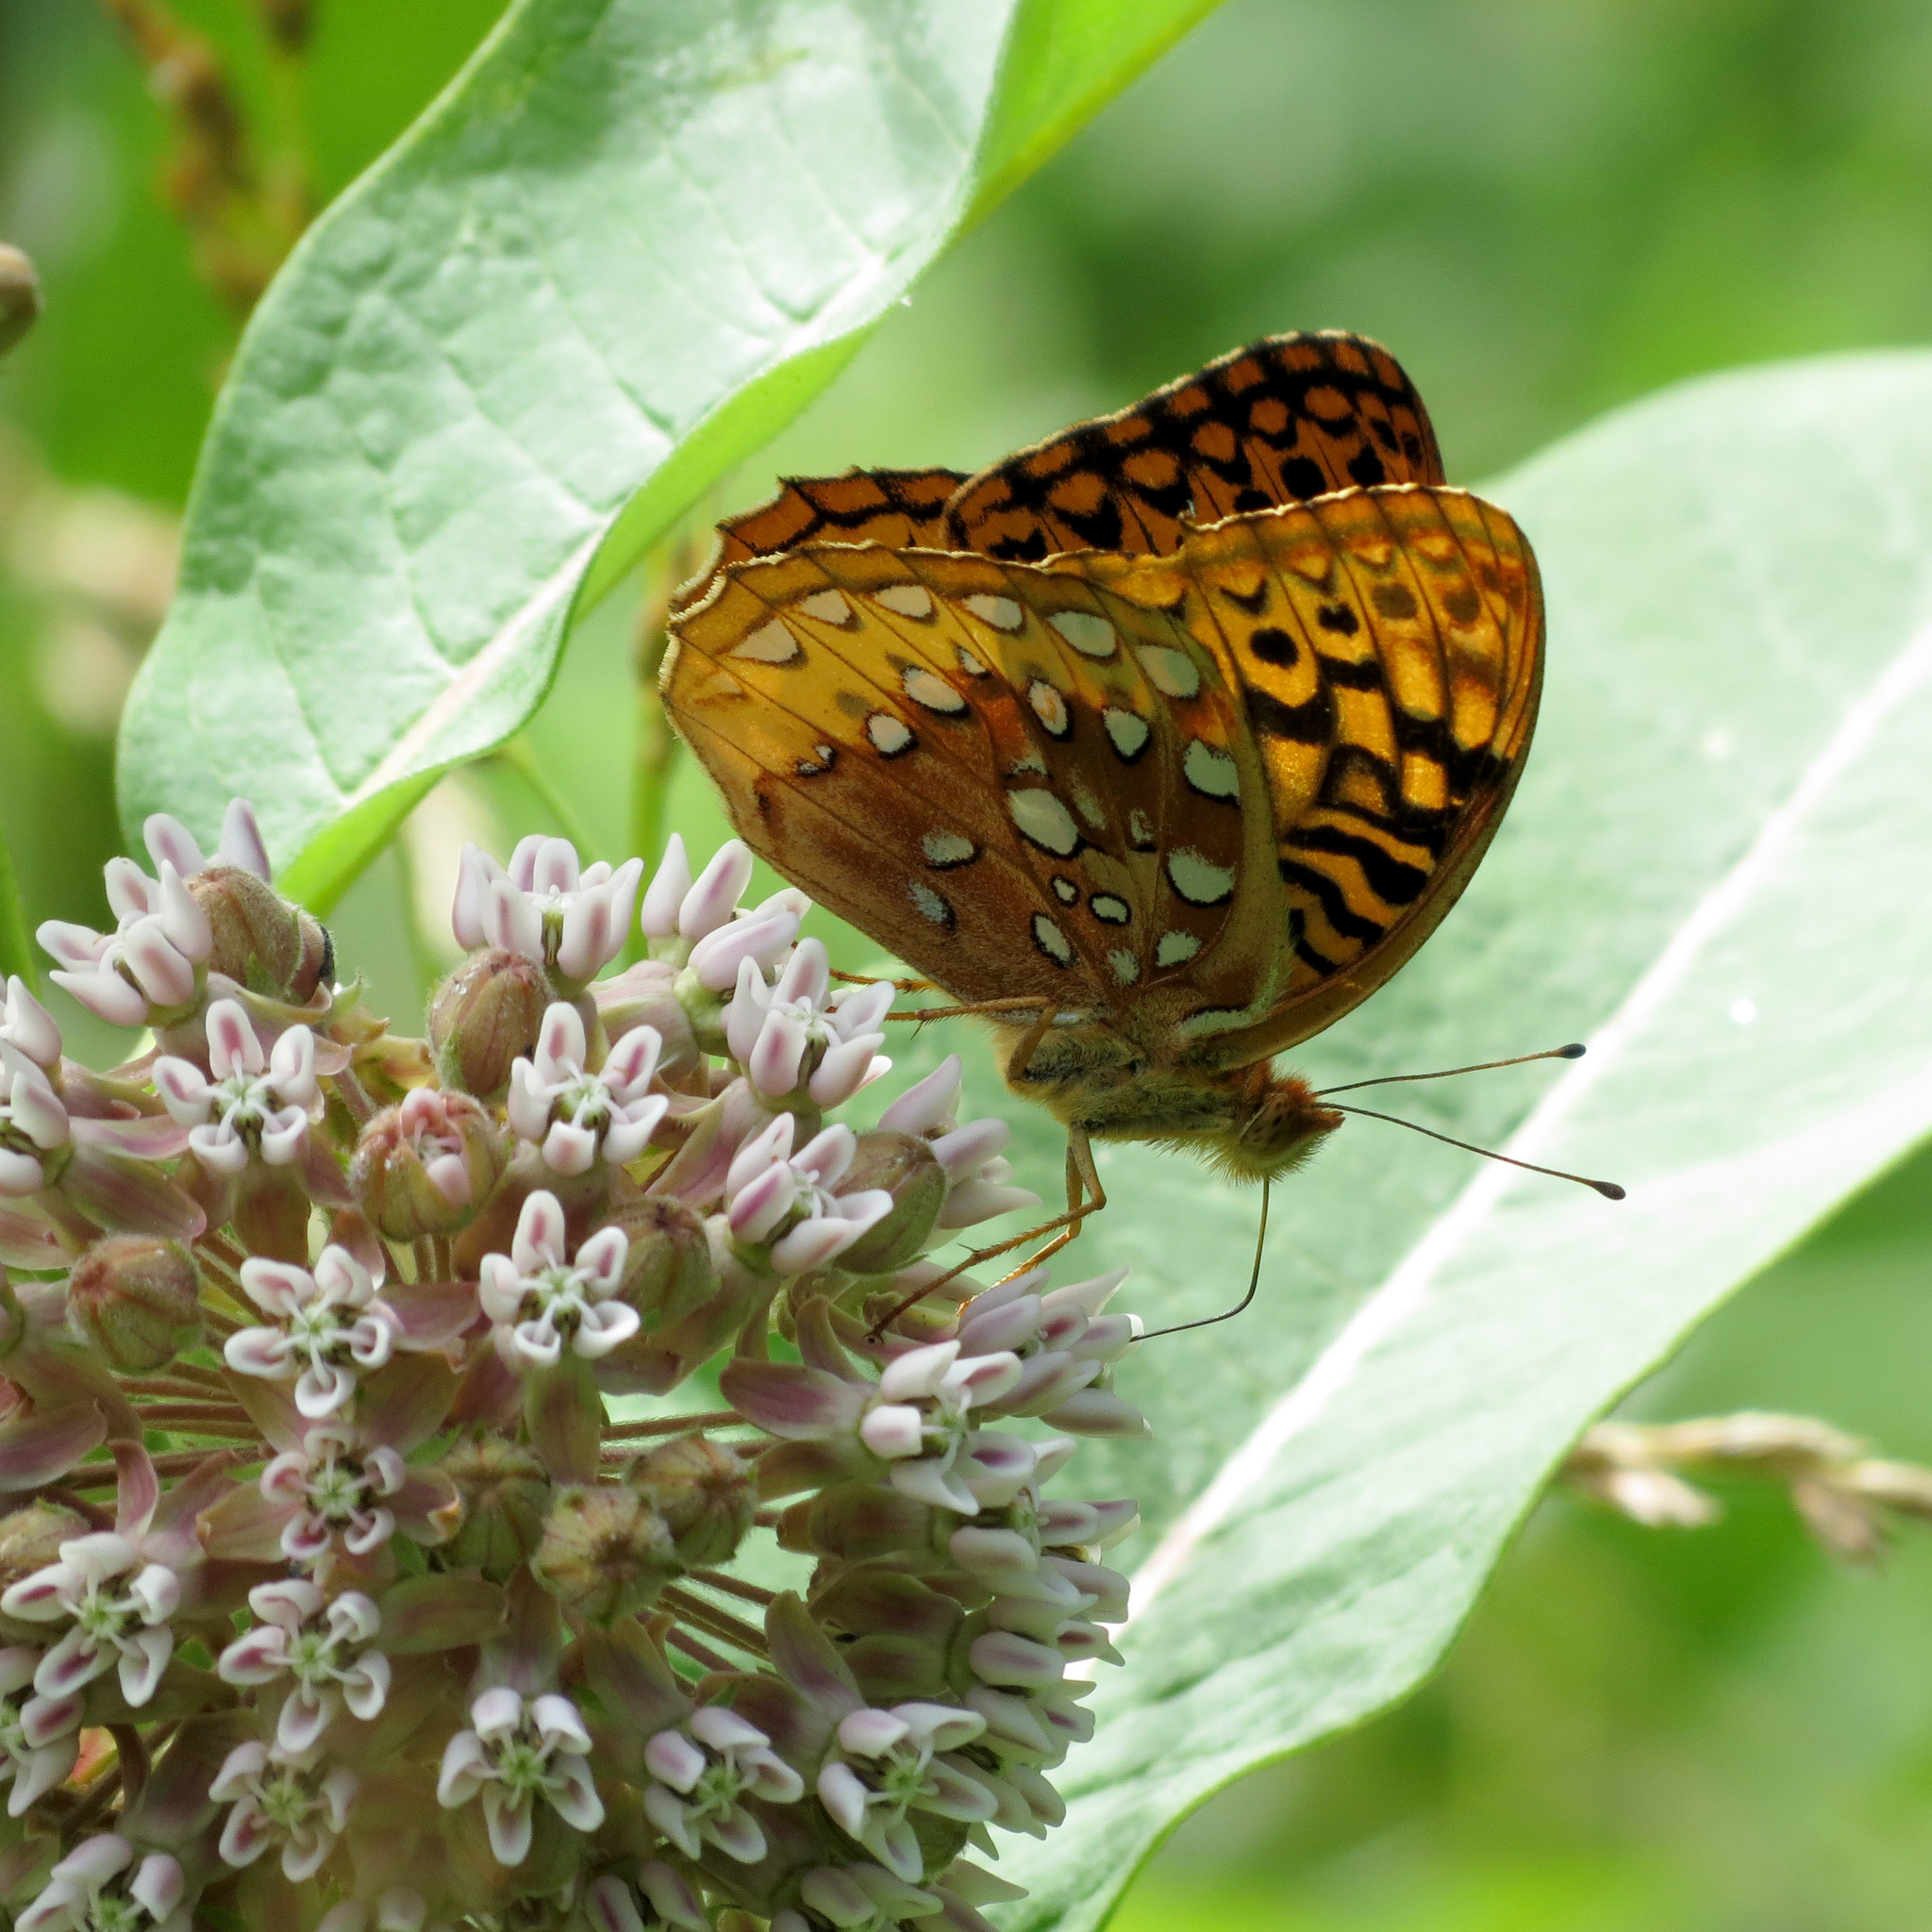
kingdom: Animalia
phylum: Arthropoda
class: Insecta
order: Lepidoptera
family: Nymphalidae
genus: Speyeria
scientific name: Speyeria cybele
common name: Great spangled fritillary
